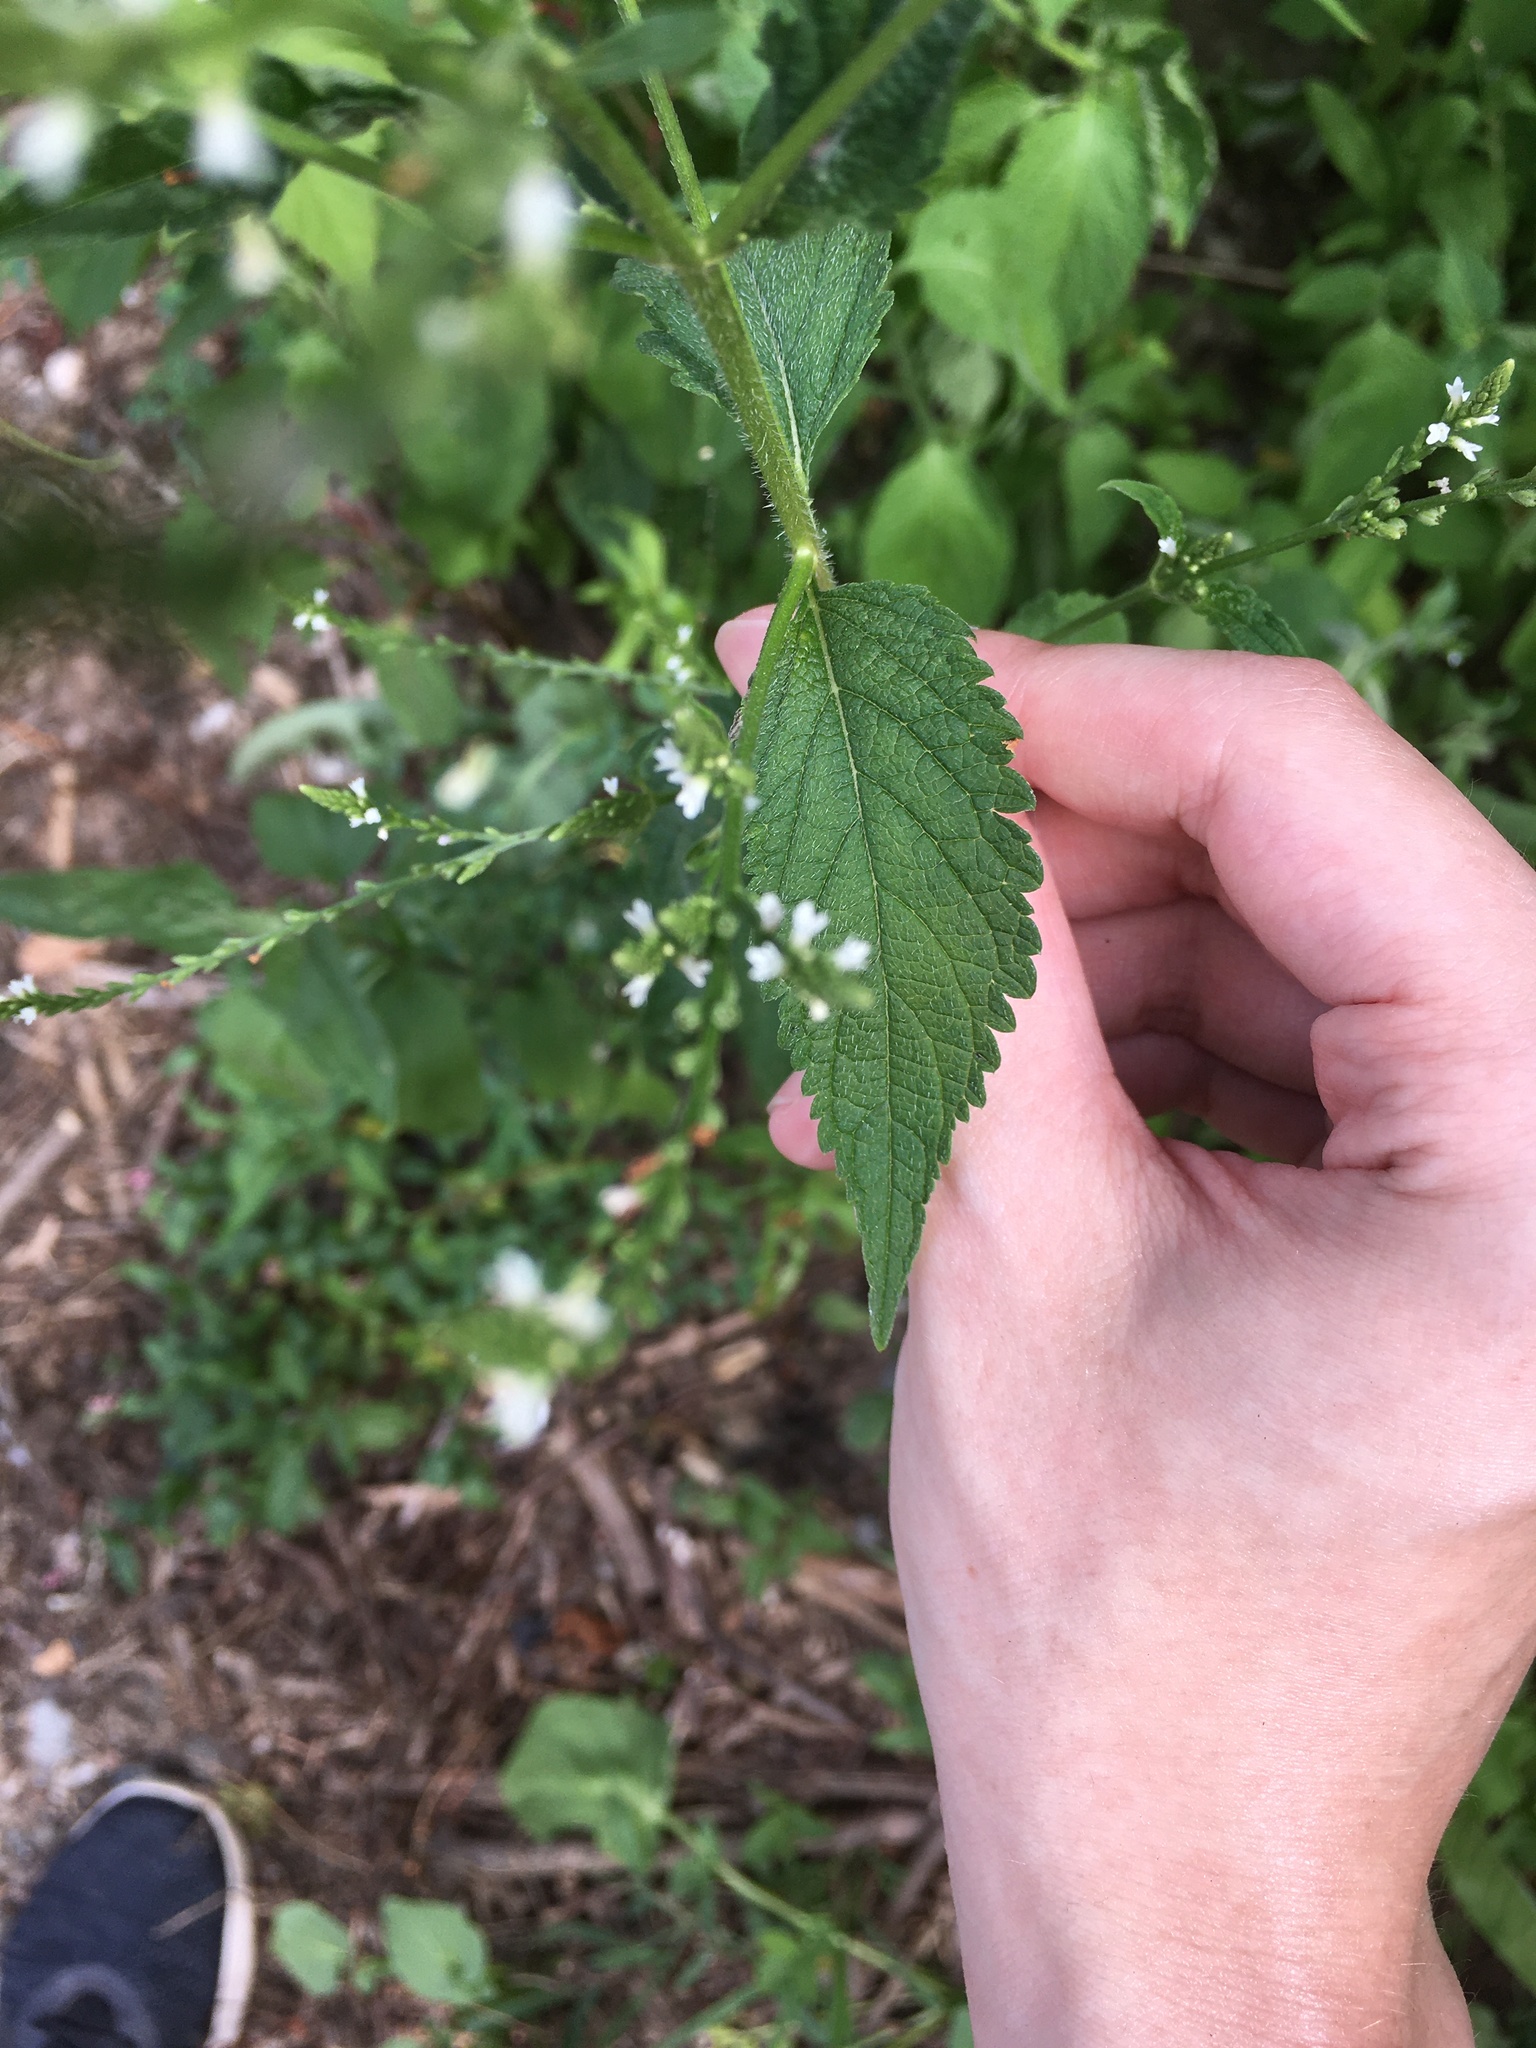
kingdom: Plantae
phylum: Tracheophyta
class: Magnoliopsida
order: Lamiales
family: Verbenaceae
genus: Verbena
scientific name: Verbena urticifolia
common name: Nettle-leaved vervain
